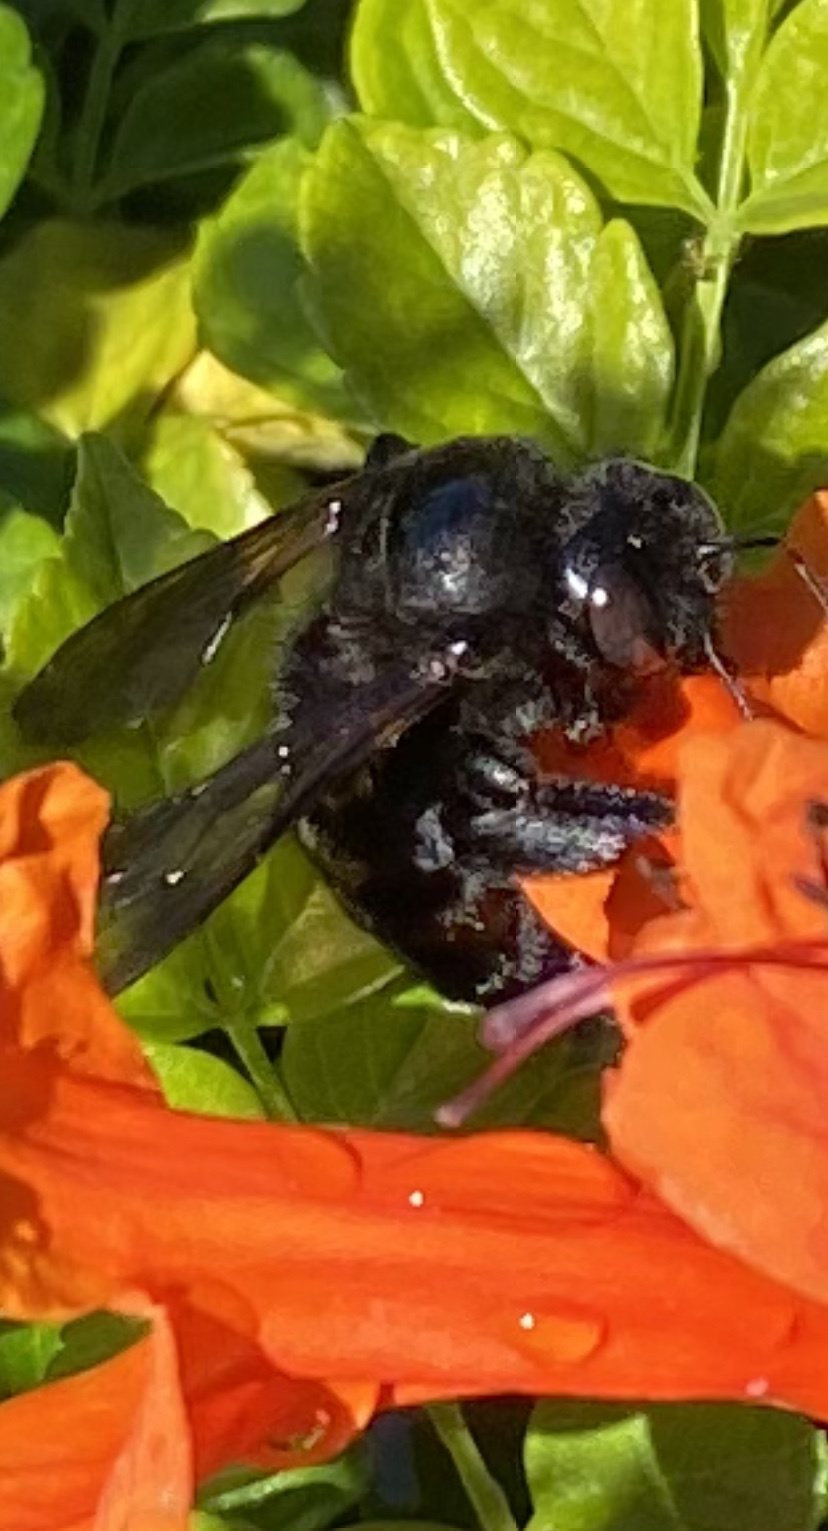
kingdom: Animalia
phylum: Arthropoda
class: Insecta
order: Hymenoptera
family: Apidae
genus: Xylocopa
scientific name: Xylocopa sonorina
